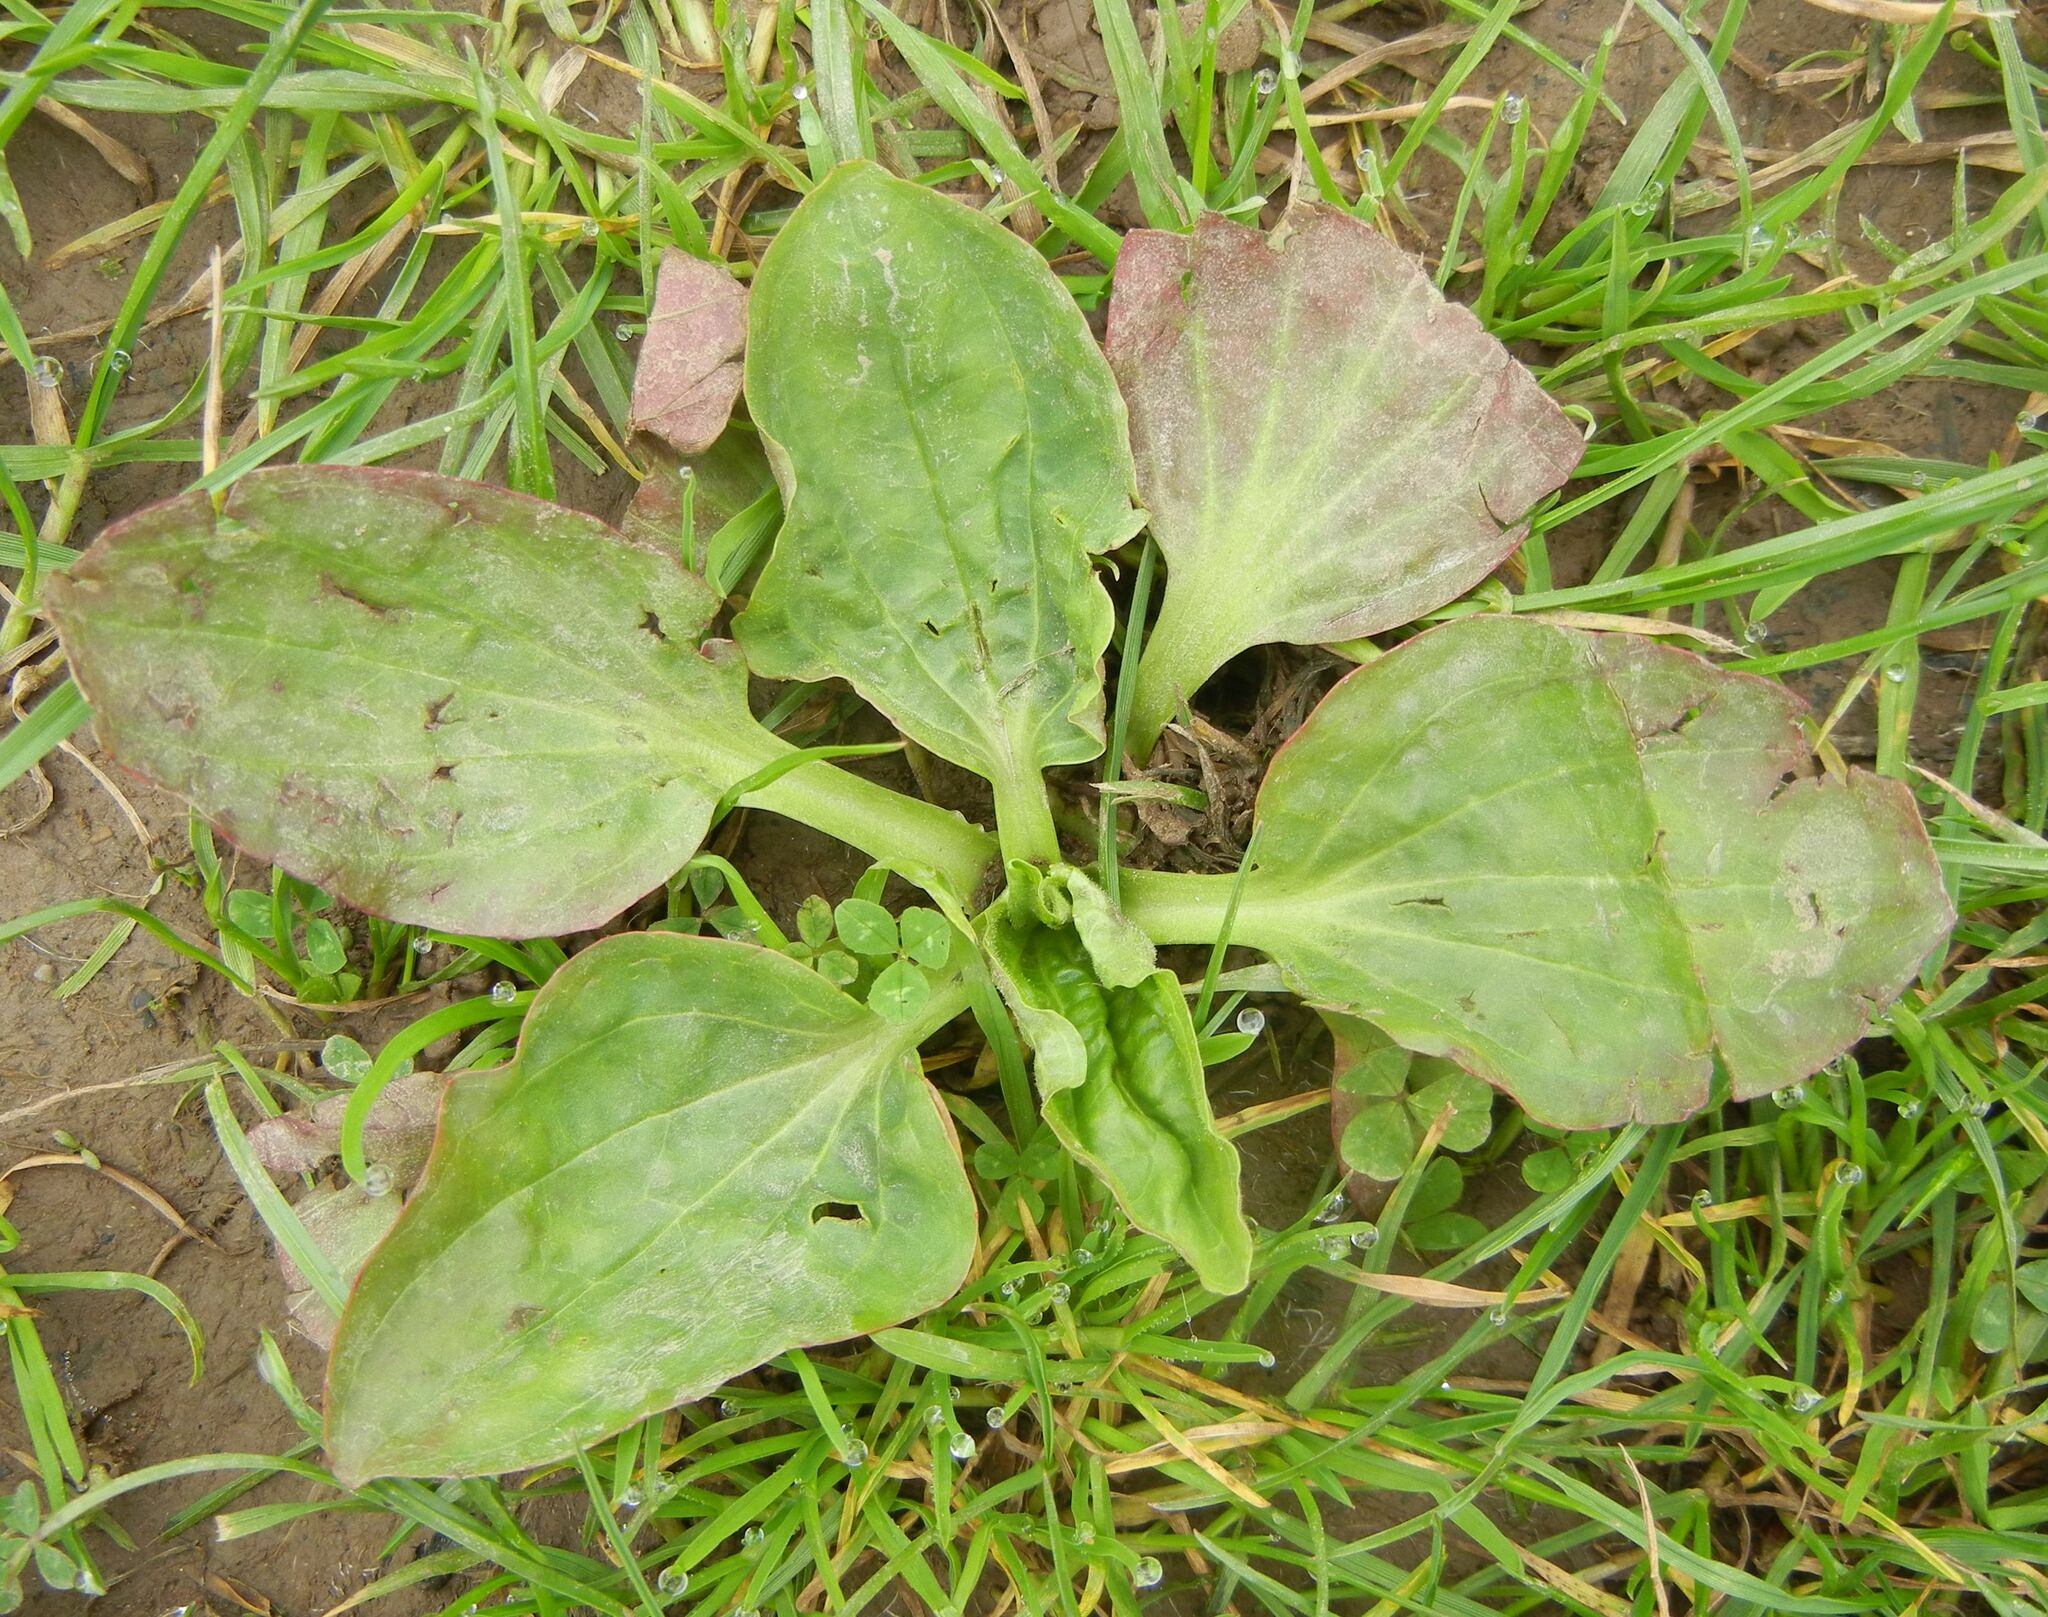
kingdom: Plantae
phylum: Tracheophyta
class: Magnoliopsida
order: Lamiales
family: Plantaginaceae
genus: Plantago
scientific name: Plantago major
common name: Common plantain
